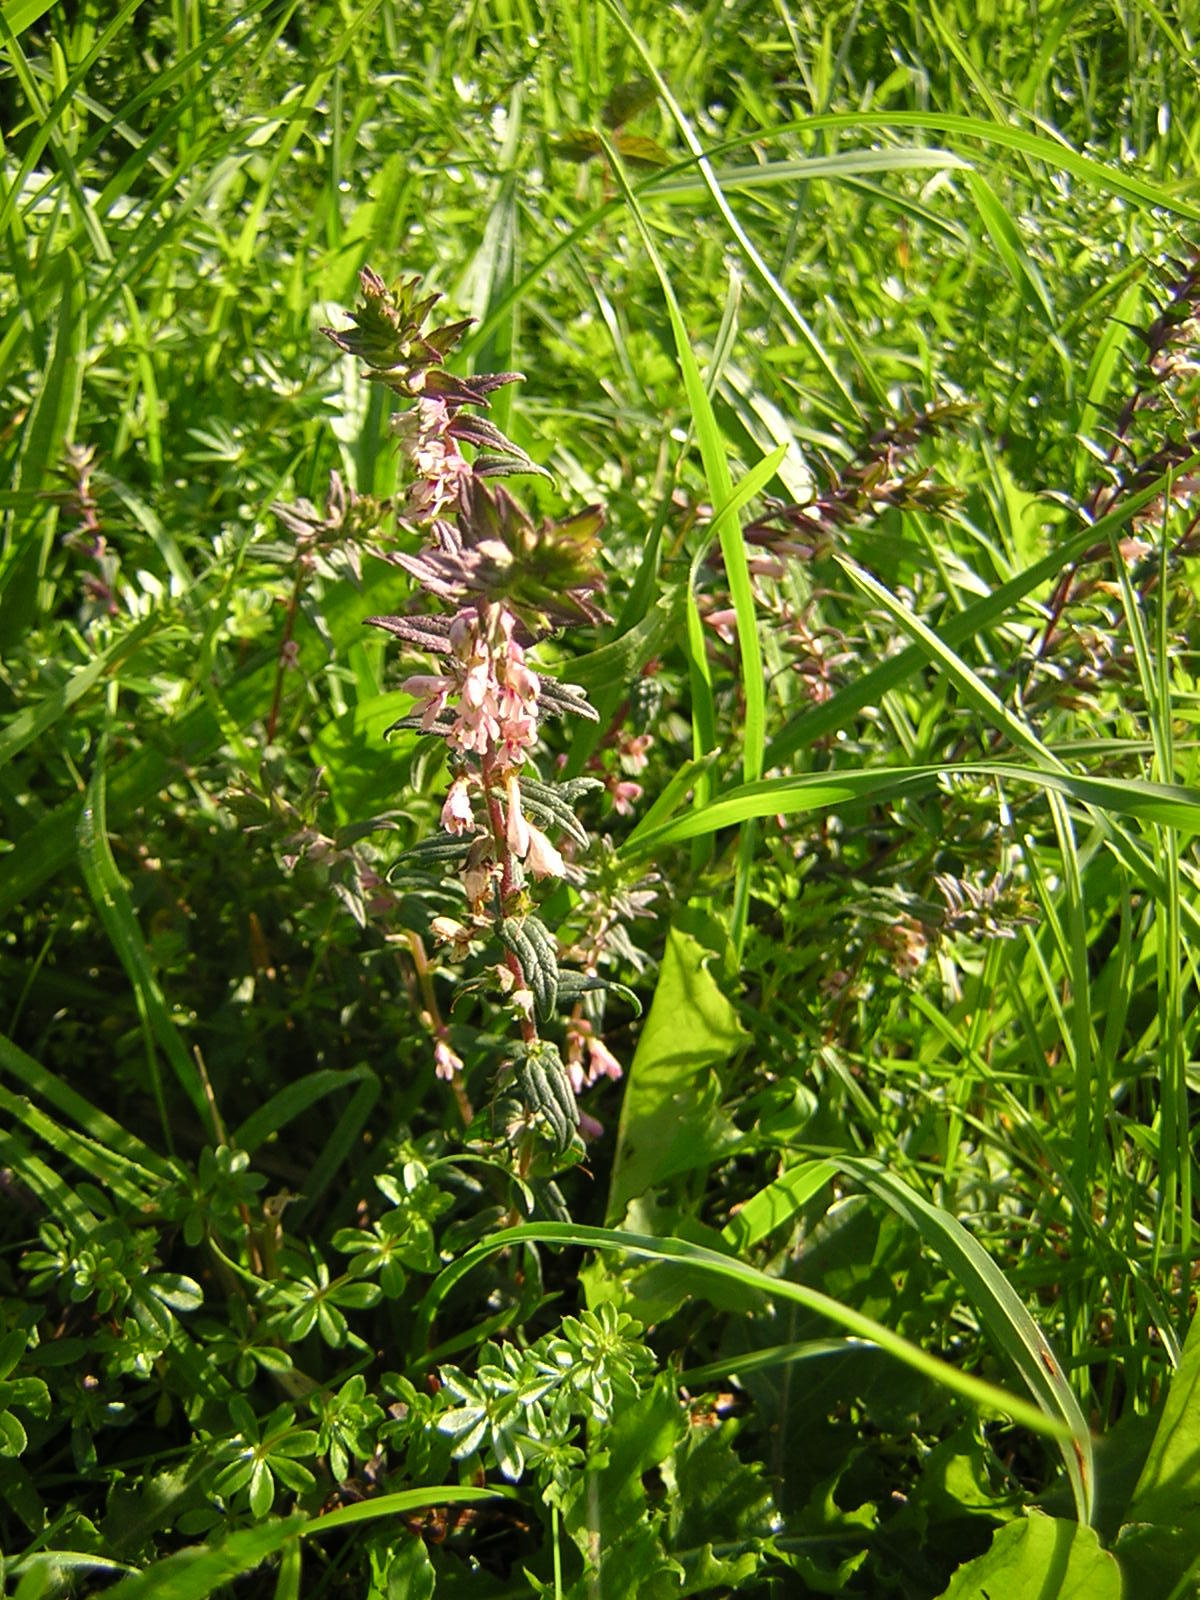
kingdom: Plantae
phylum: Tracheophyta
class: Magnoliopsida
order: Lamiales
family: Orobanchaceae
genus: Odontites
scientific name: Odontites vernus
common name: Red bartsia
